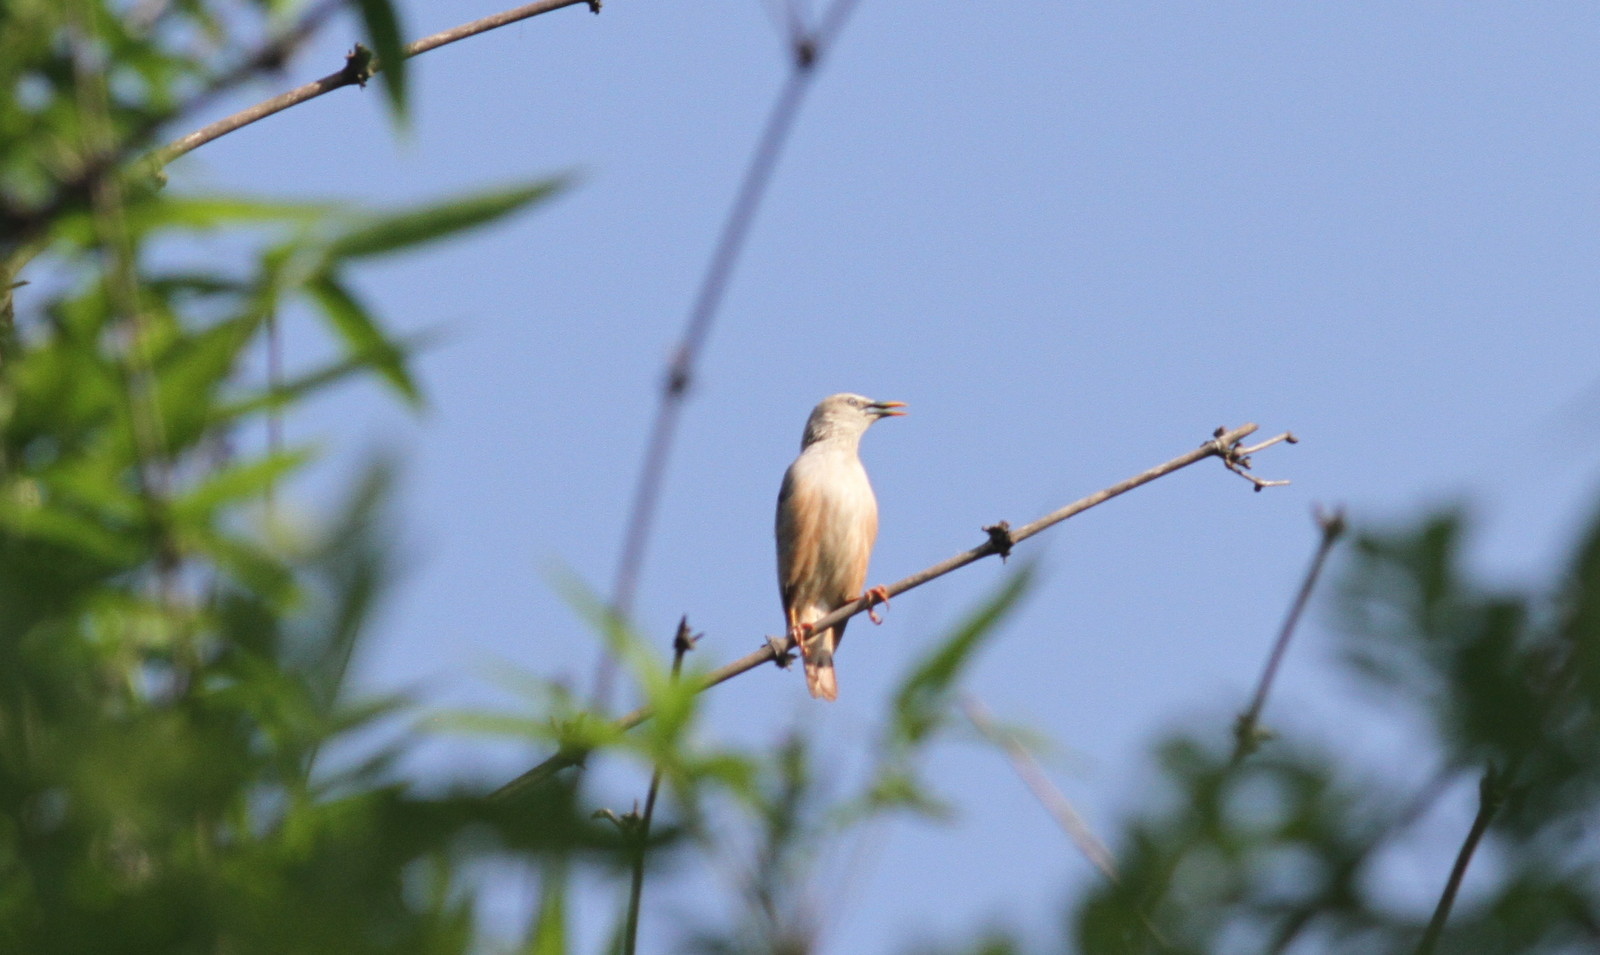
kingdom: Animalia
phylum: Chordata
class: Aves
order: Passeriformes
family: Sturnidae
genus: Sturnia
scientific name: Sturnia blythii
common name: Malabar starling
